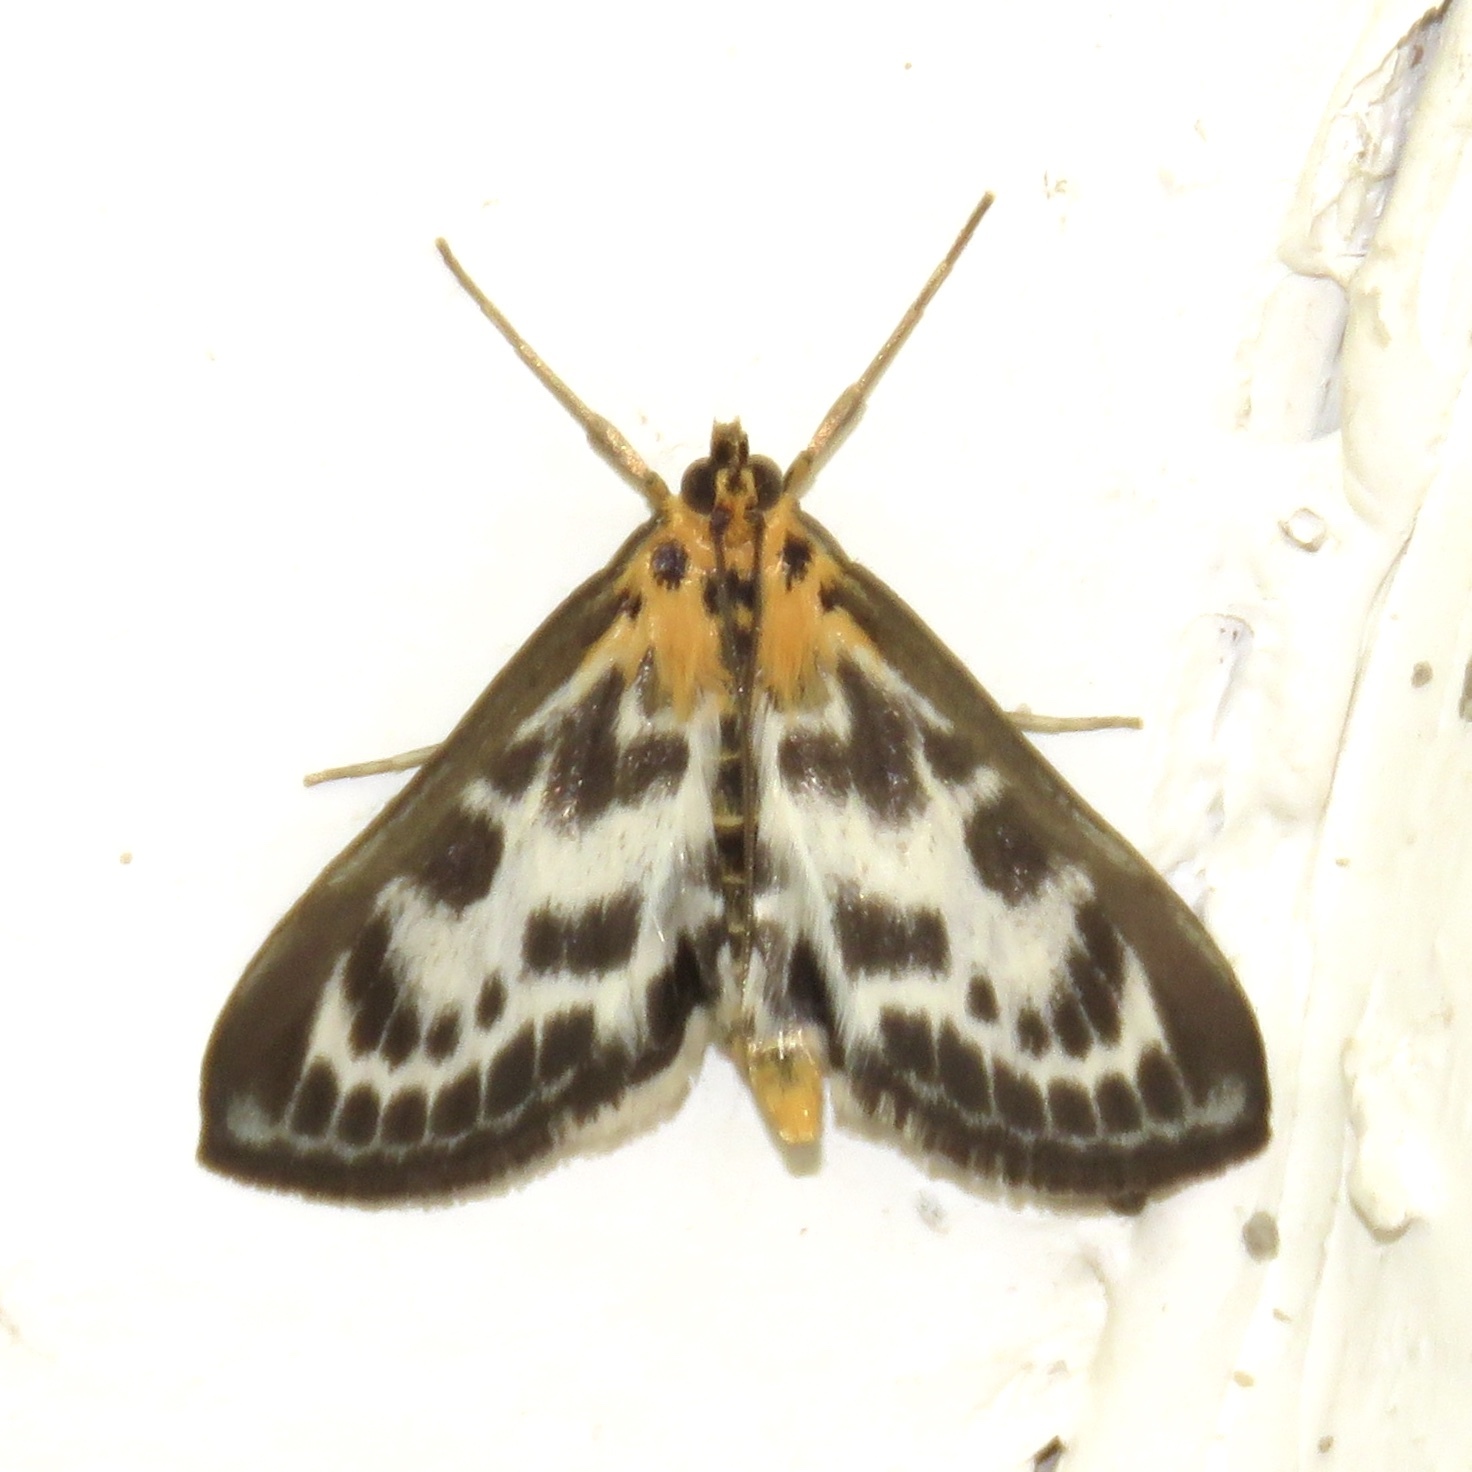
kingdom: Animalia
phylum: Arthropoda
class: Insecta
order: Lepidoptera
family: Crambidae
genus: Anania
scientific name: Anania hortulata
